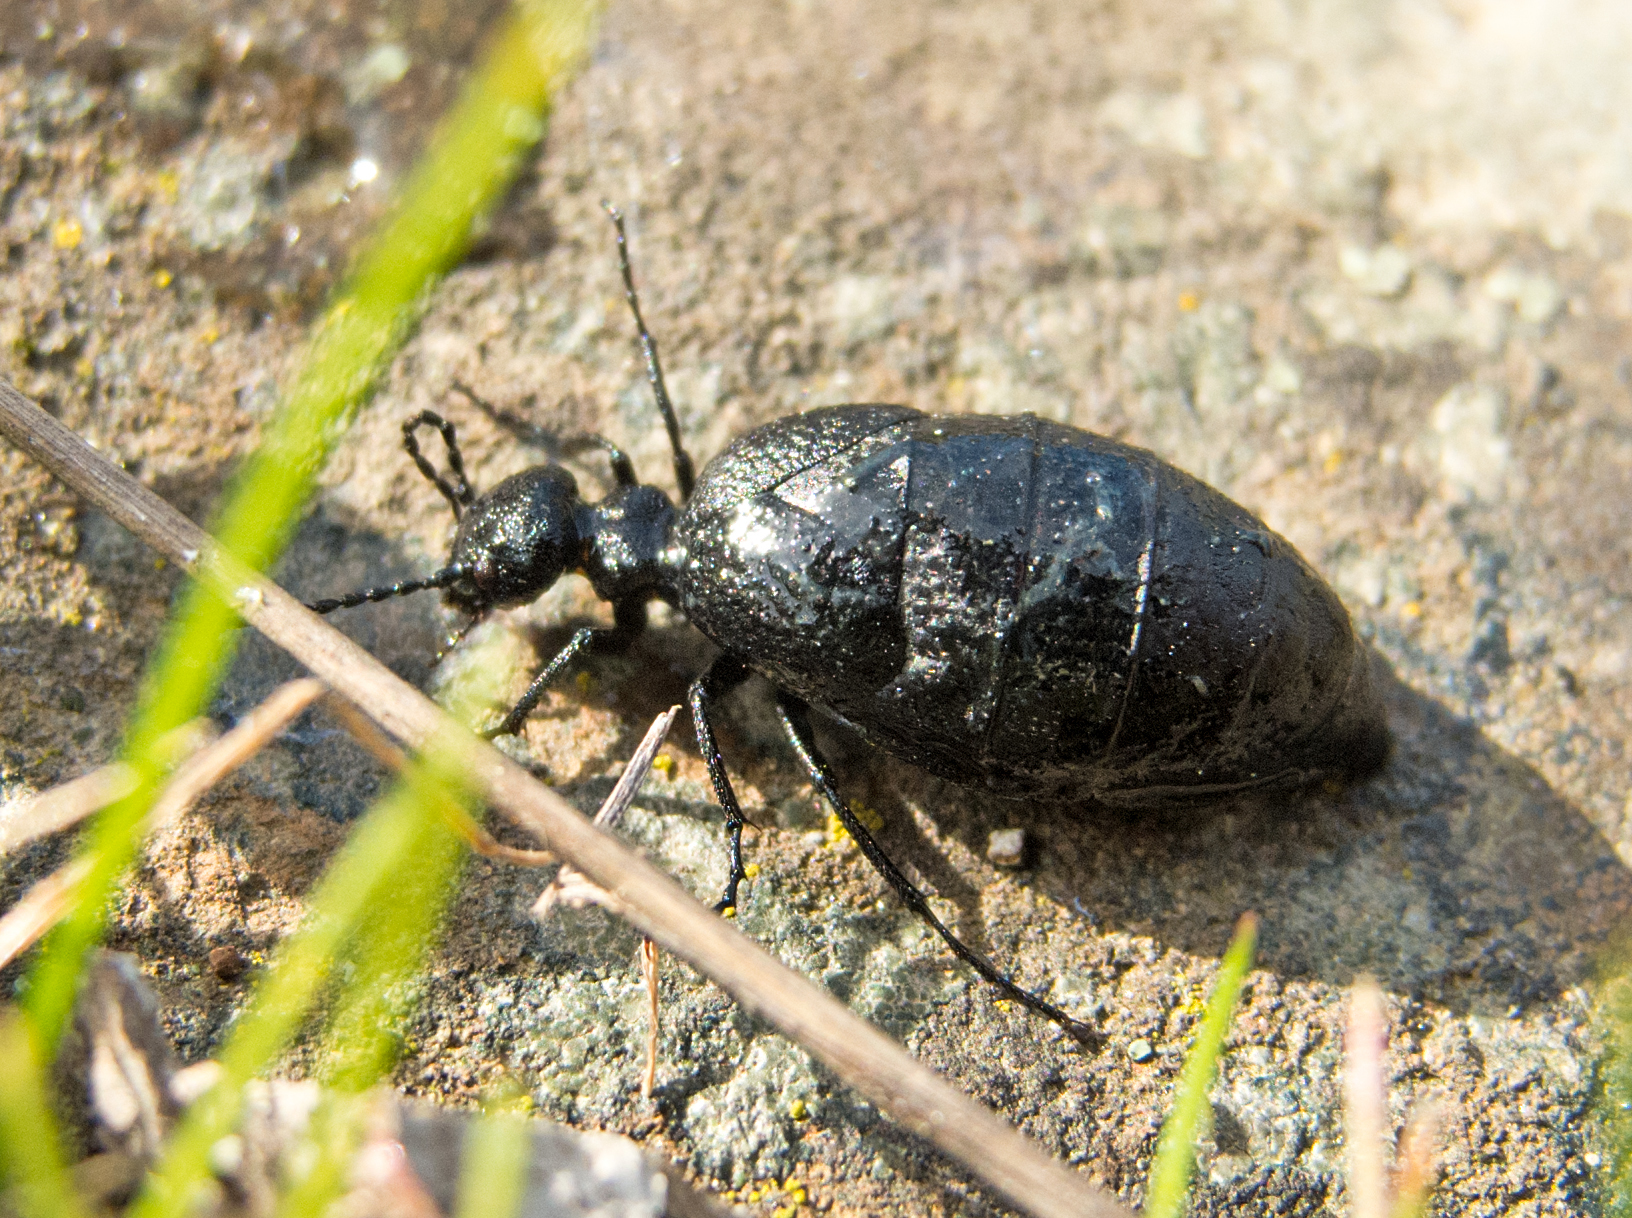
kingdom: Animalia
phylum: Arthropoda
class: Insecta
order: Coleoptera
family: Meloidae
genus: Meloe
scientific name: Meloe rugosus
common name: Rugged oil-beetle
